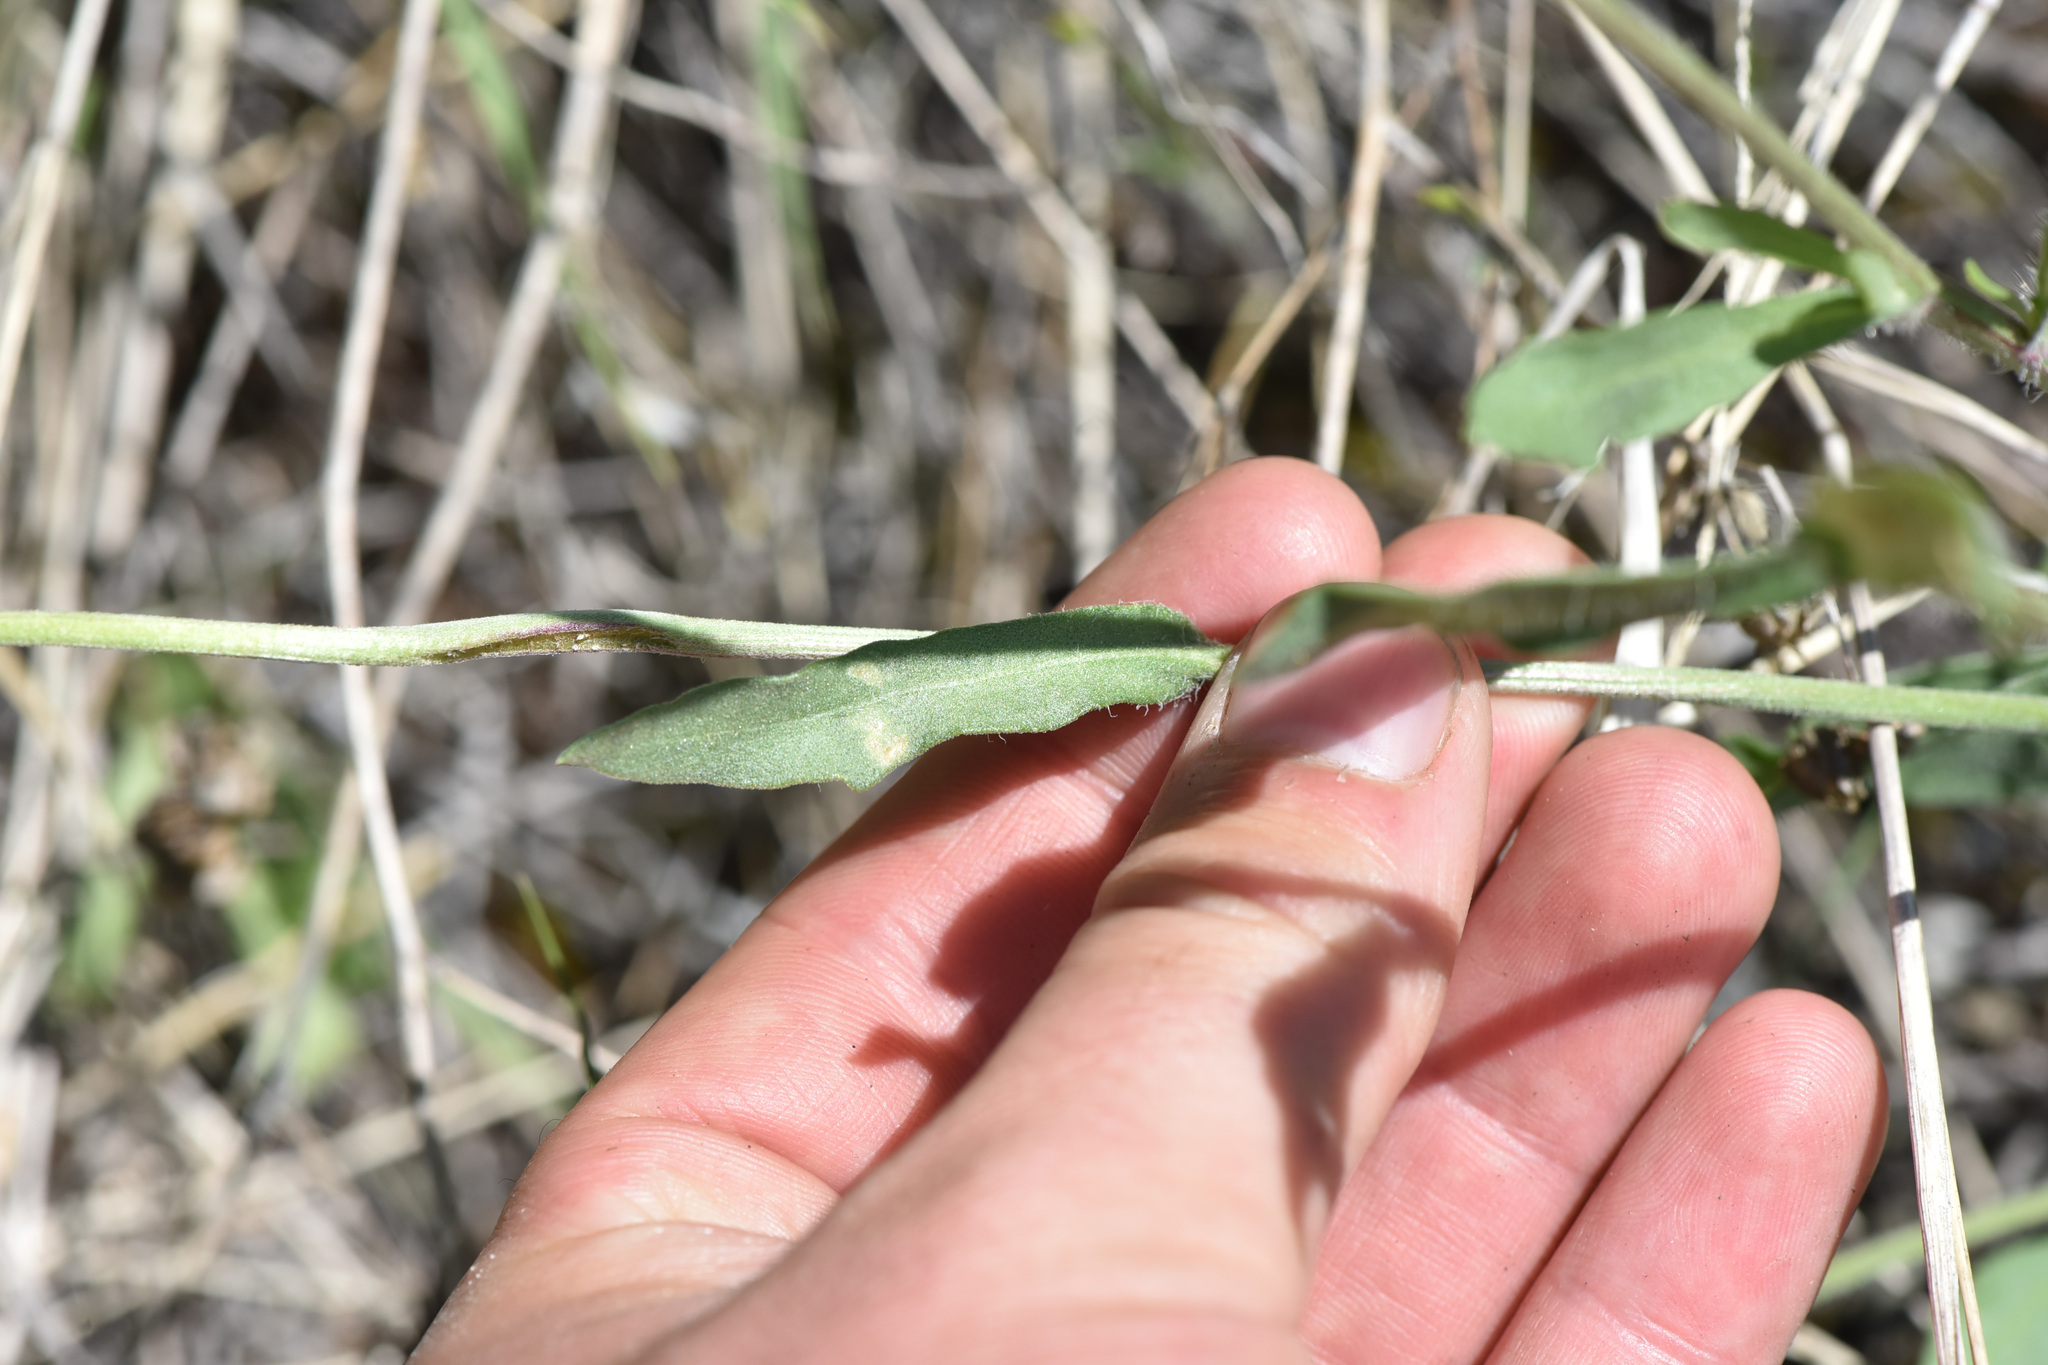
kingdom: Plantae
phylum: Tracheophyta
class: Magnoliopsida
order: Asterales
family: Asteraceae
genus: Gaillardia
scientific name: Gaillardia aristata
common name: Blanket-flower
